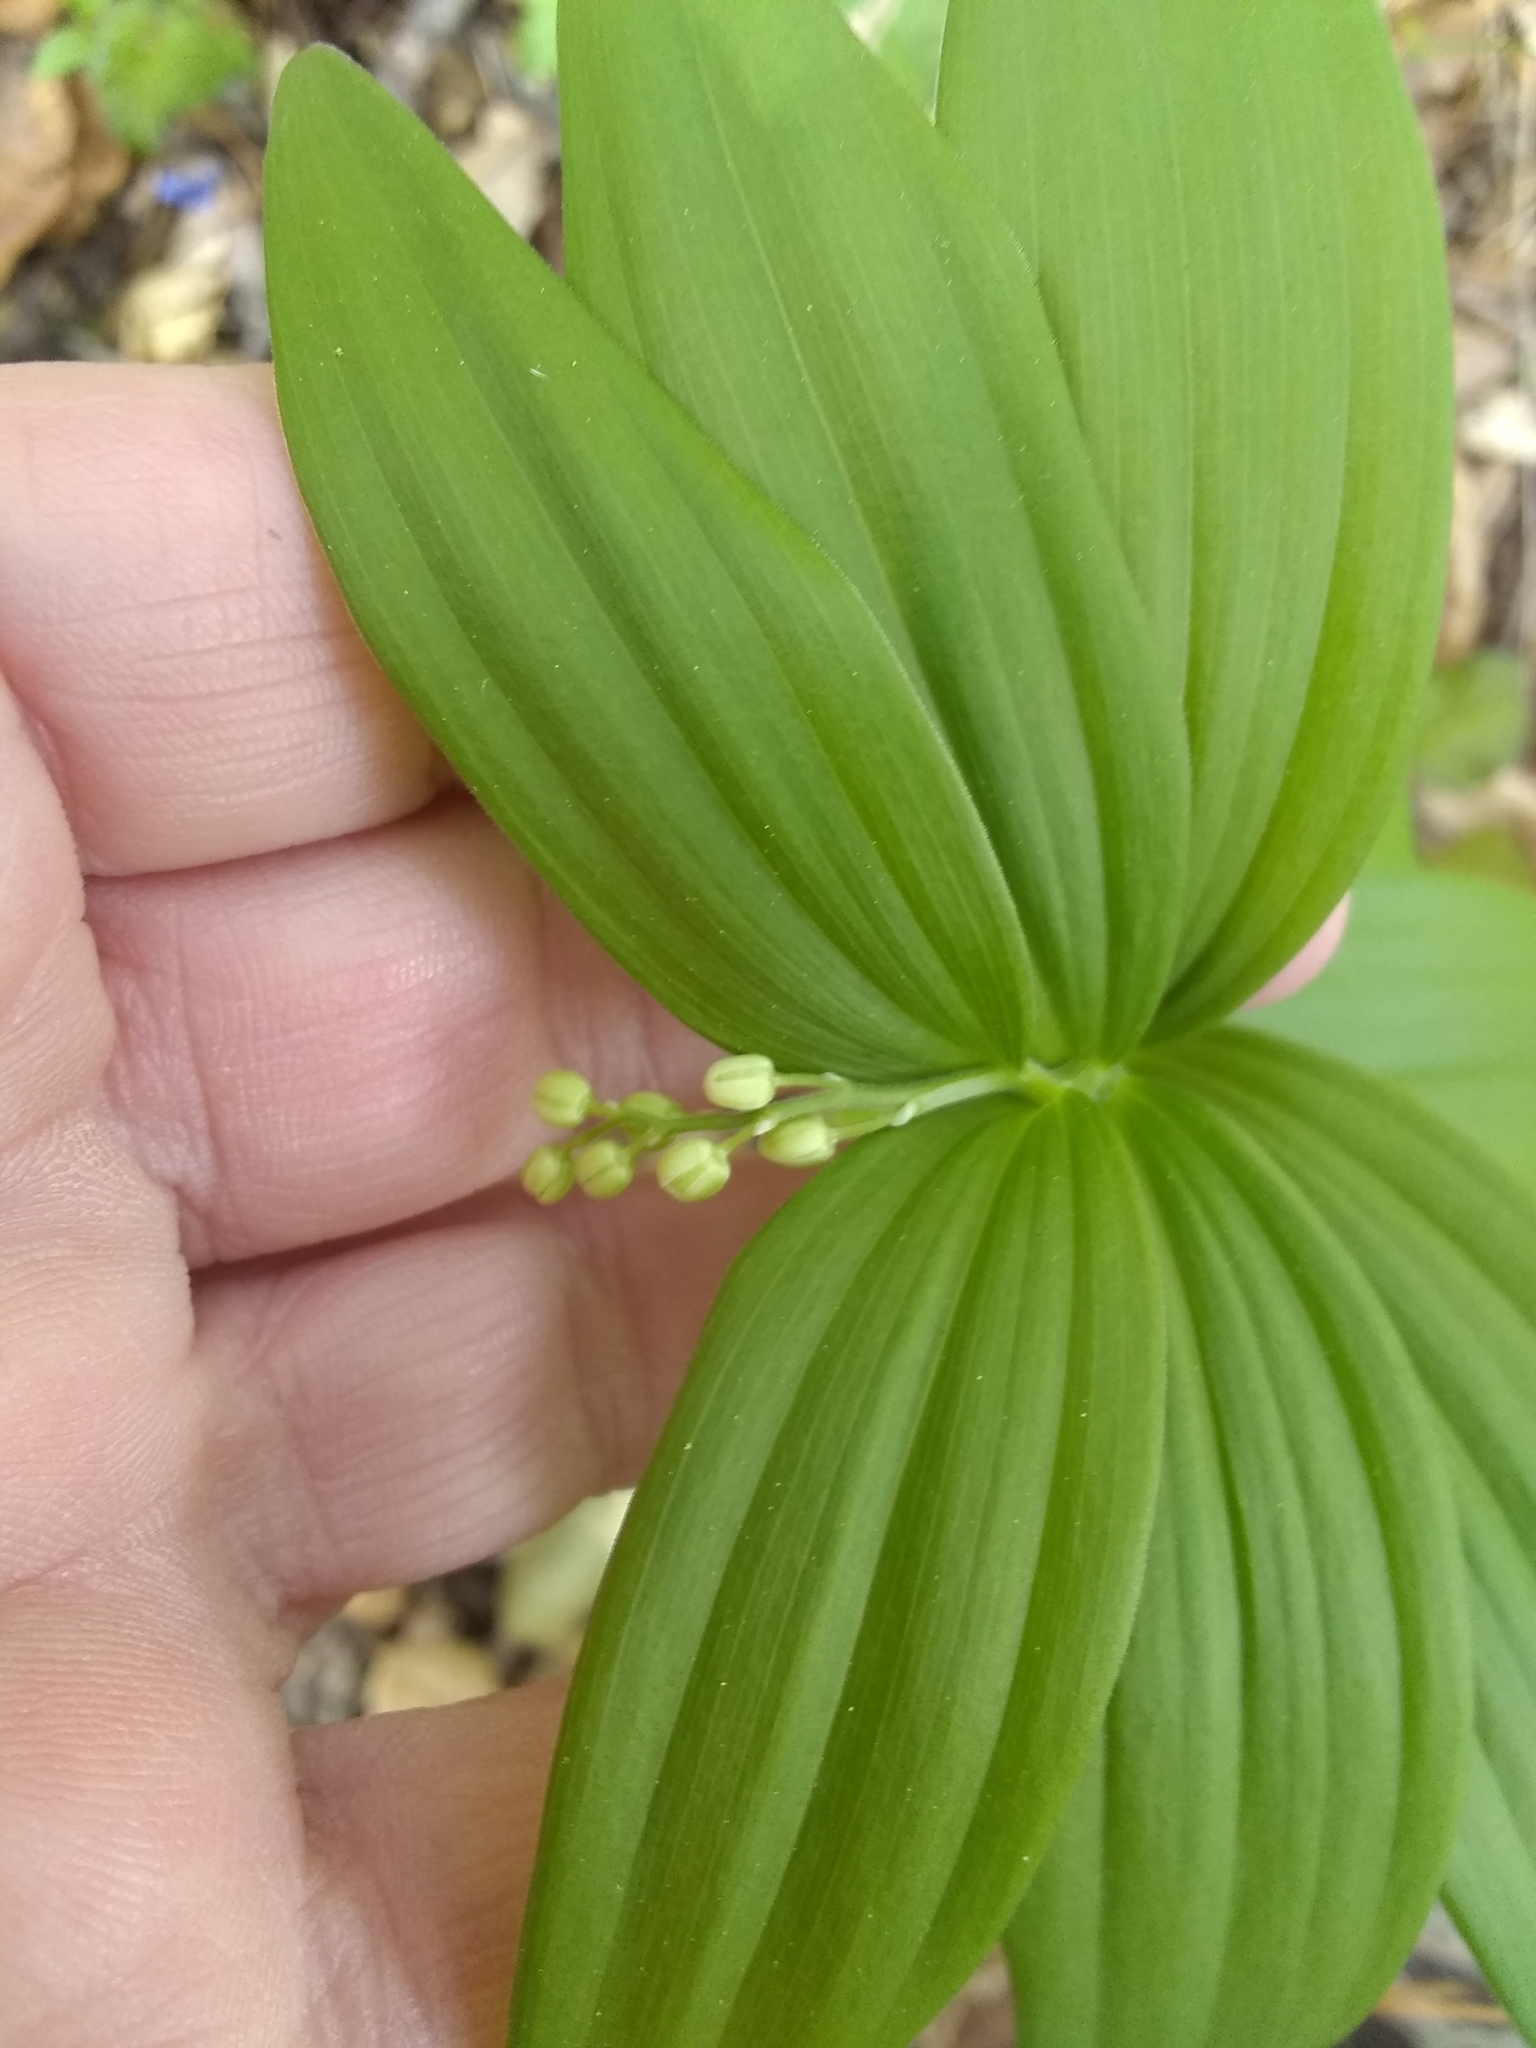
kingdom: Plantae
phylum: Tracheophyta
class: Liliopsida
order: Asparagales
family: Asparagaceae
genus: Maianthemum
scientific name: Maianthemum stellatum
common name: Little false solomon's seal
